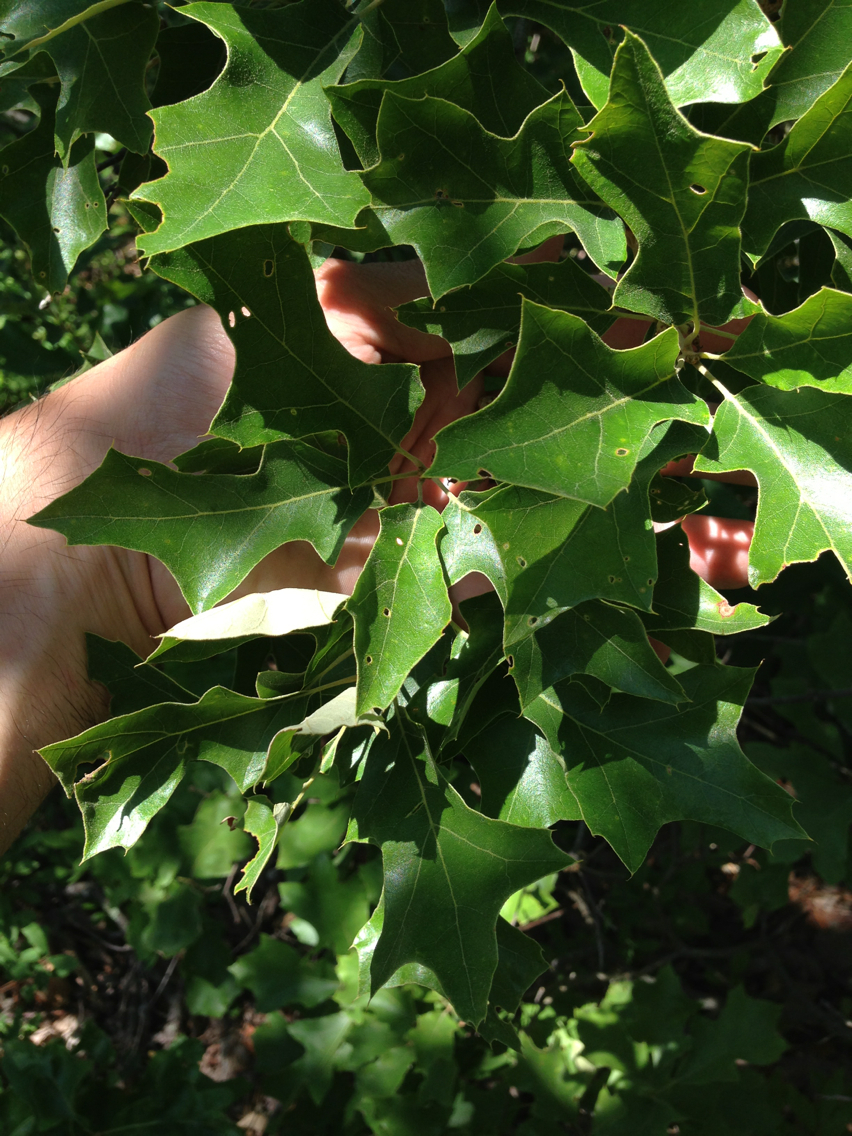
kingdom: Plantae
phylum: Tracheophyta
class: Magnoliopsida
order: Fagales
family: Fagaceae
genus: Quercus
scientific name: Quercus ilicifolia
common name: Bear oak
